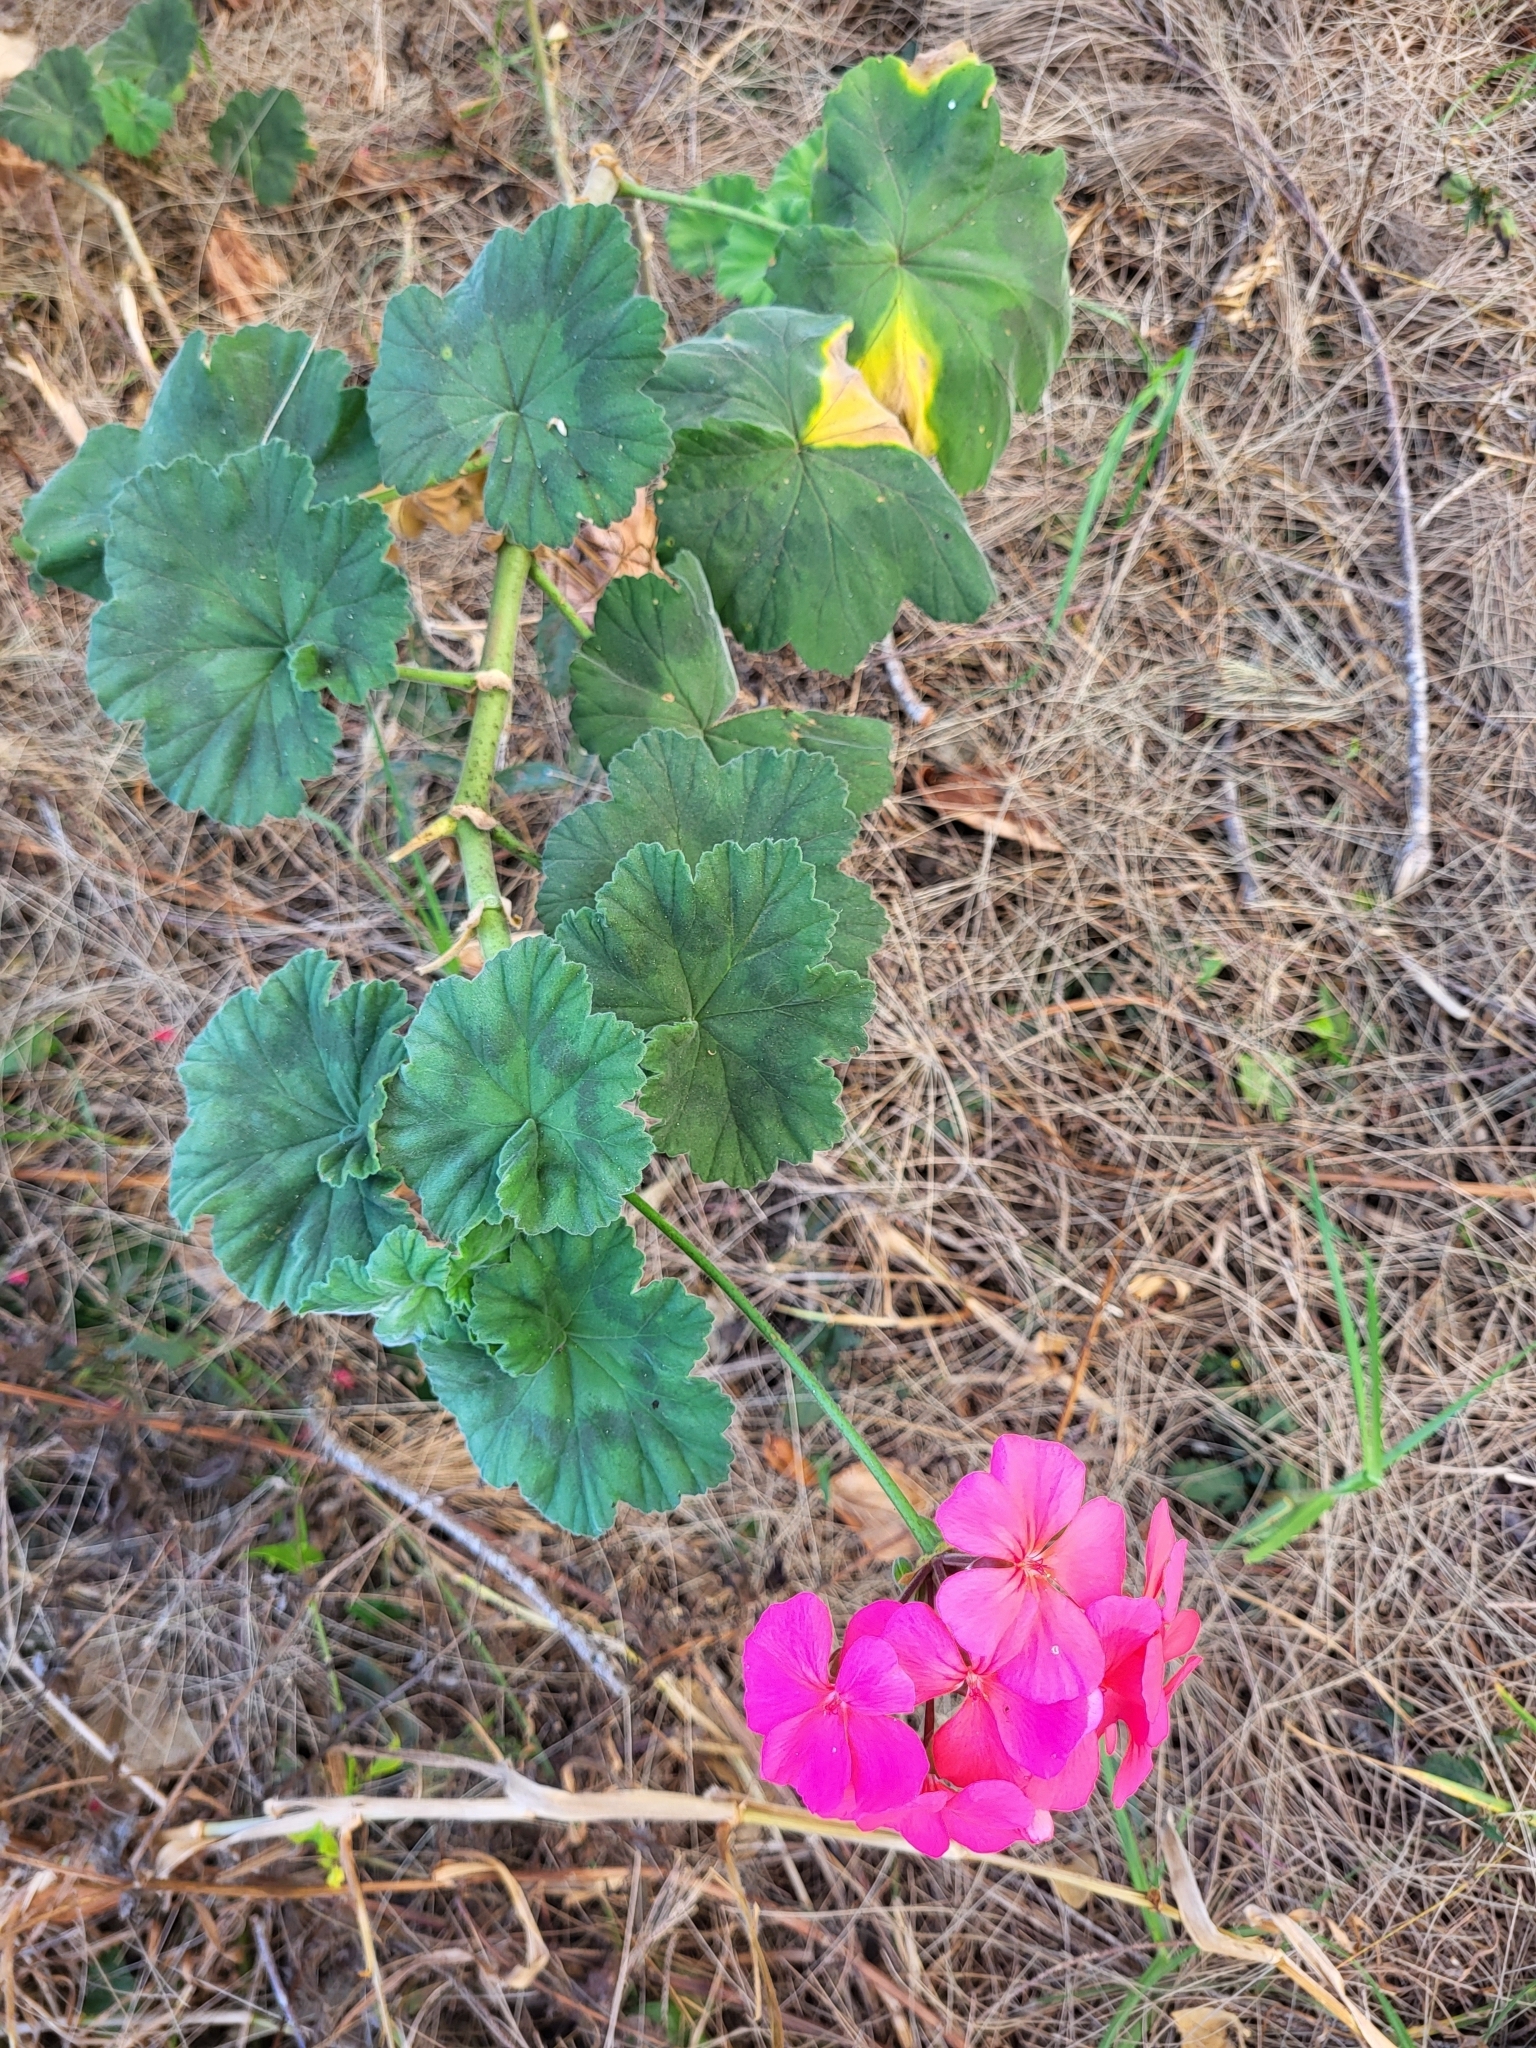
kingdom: Plantae
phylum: Tracheophyta
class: Magnoliopsida
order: Geraniales
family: Geraniaceae
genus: Pelargonium
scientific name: Pelargonium hybridum
